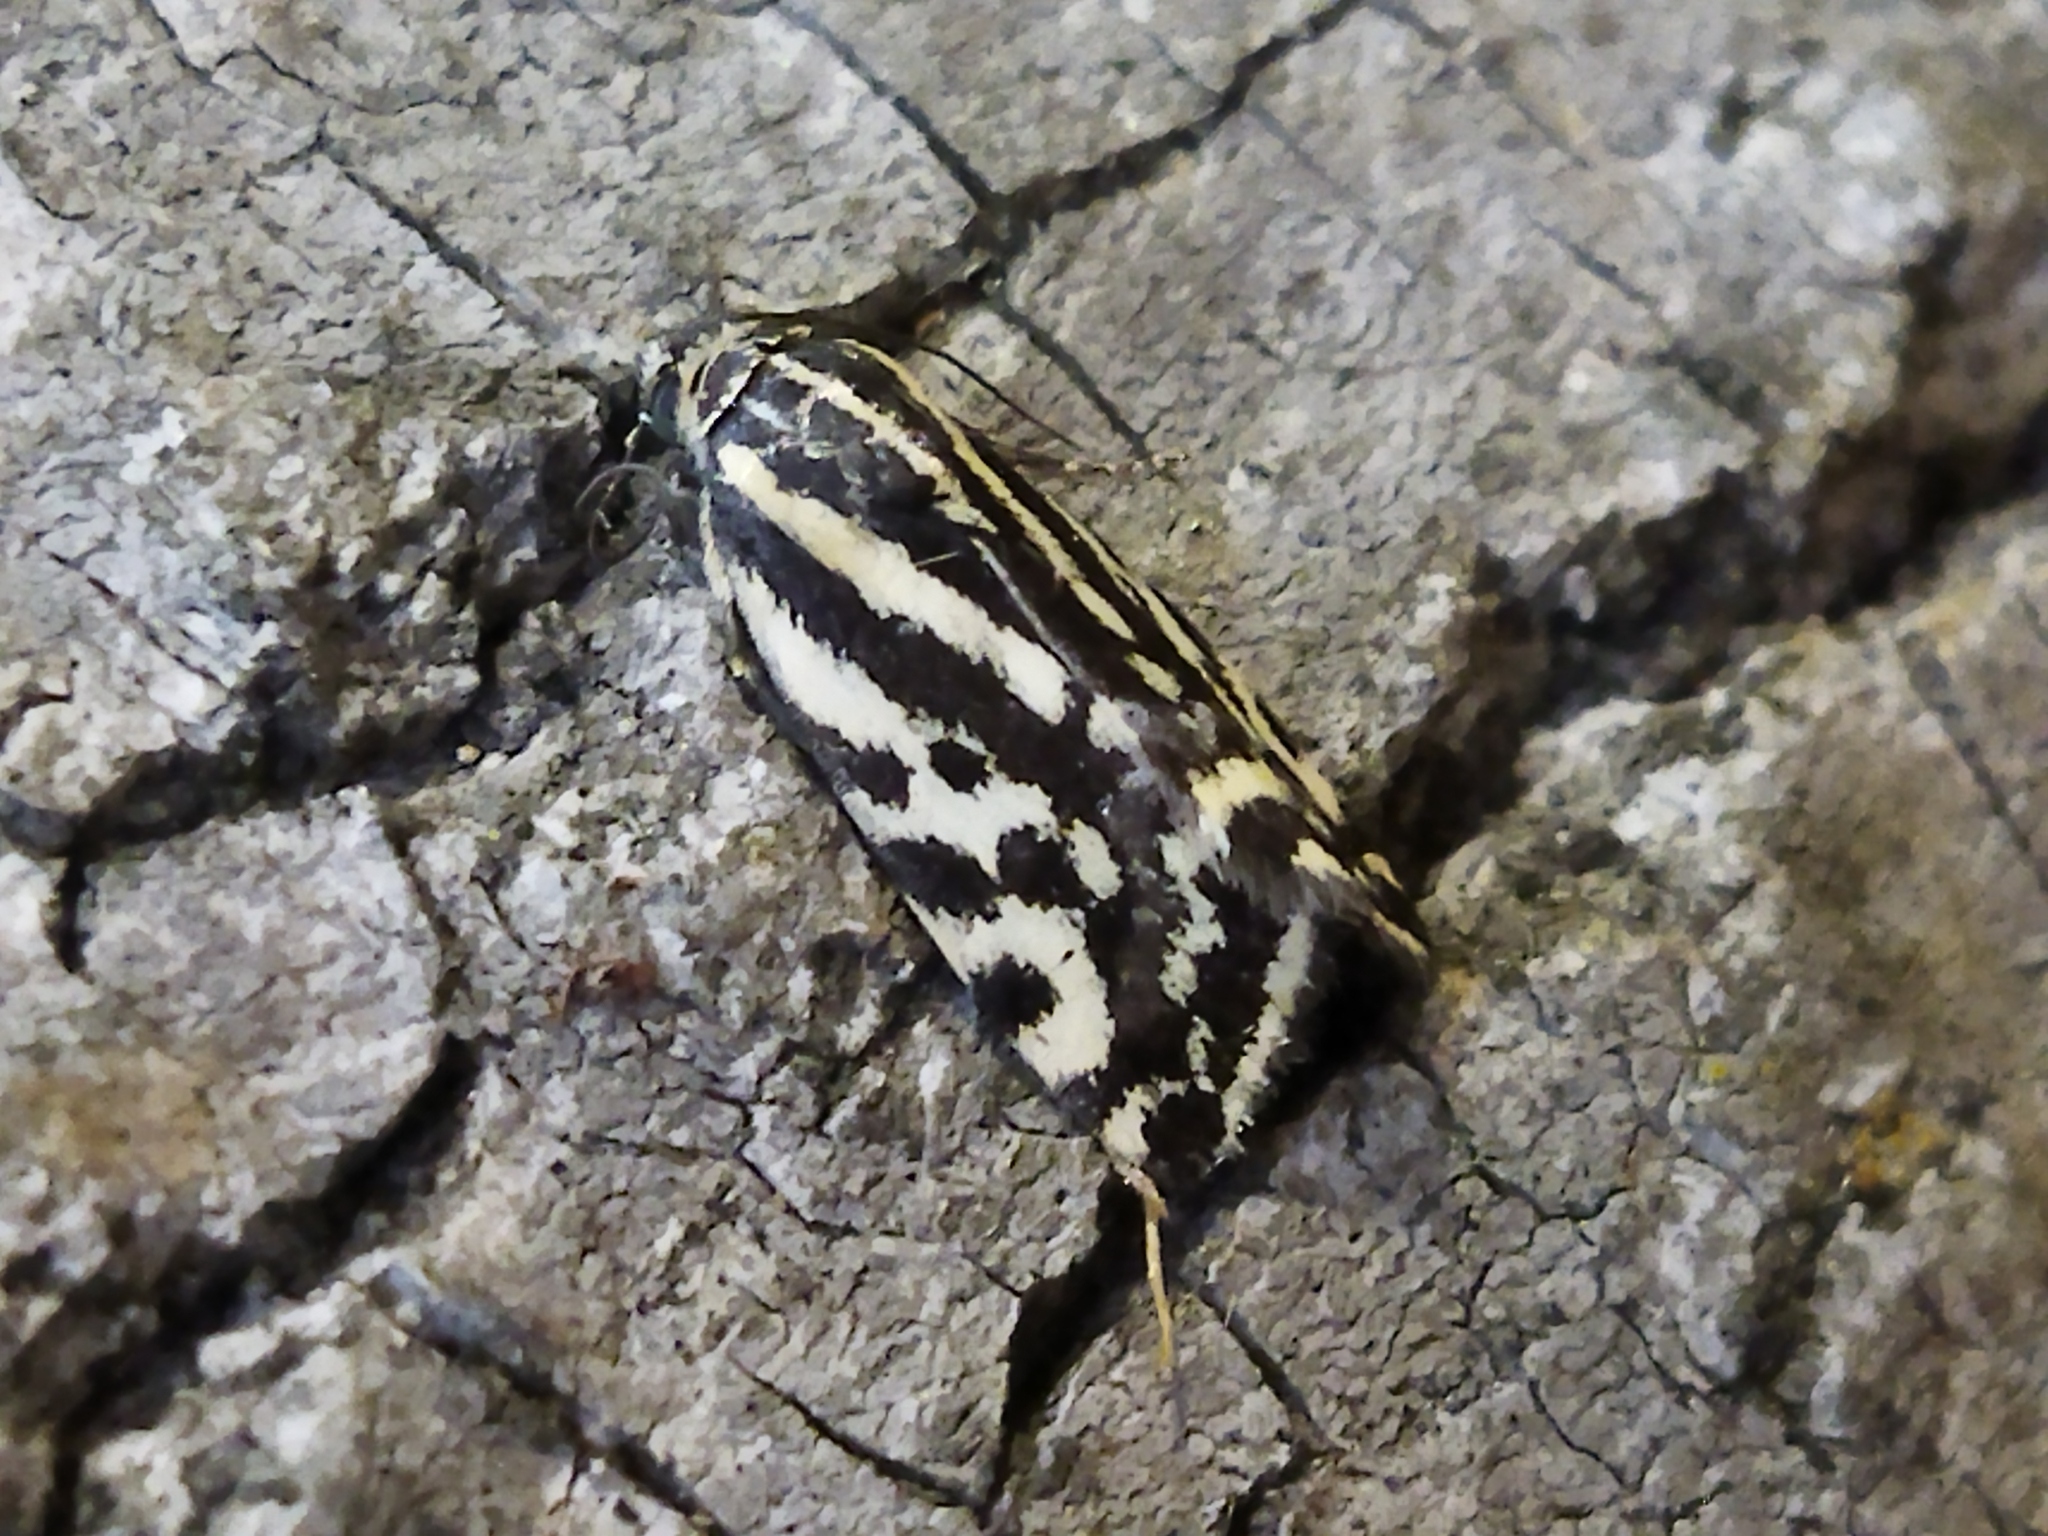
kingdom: Animalia
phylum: Arthropoda
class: Insecta
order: Lepidoptera
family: Noctuidae
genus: Acontia
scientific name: Acontia trabealis
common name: Spotted sulphur
